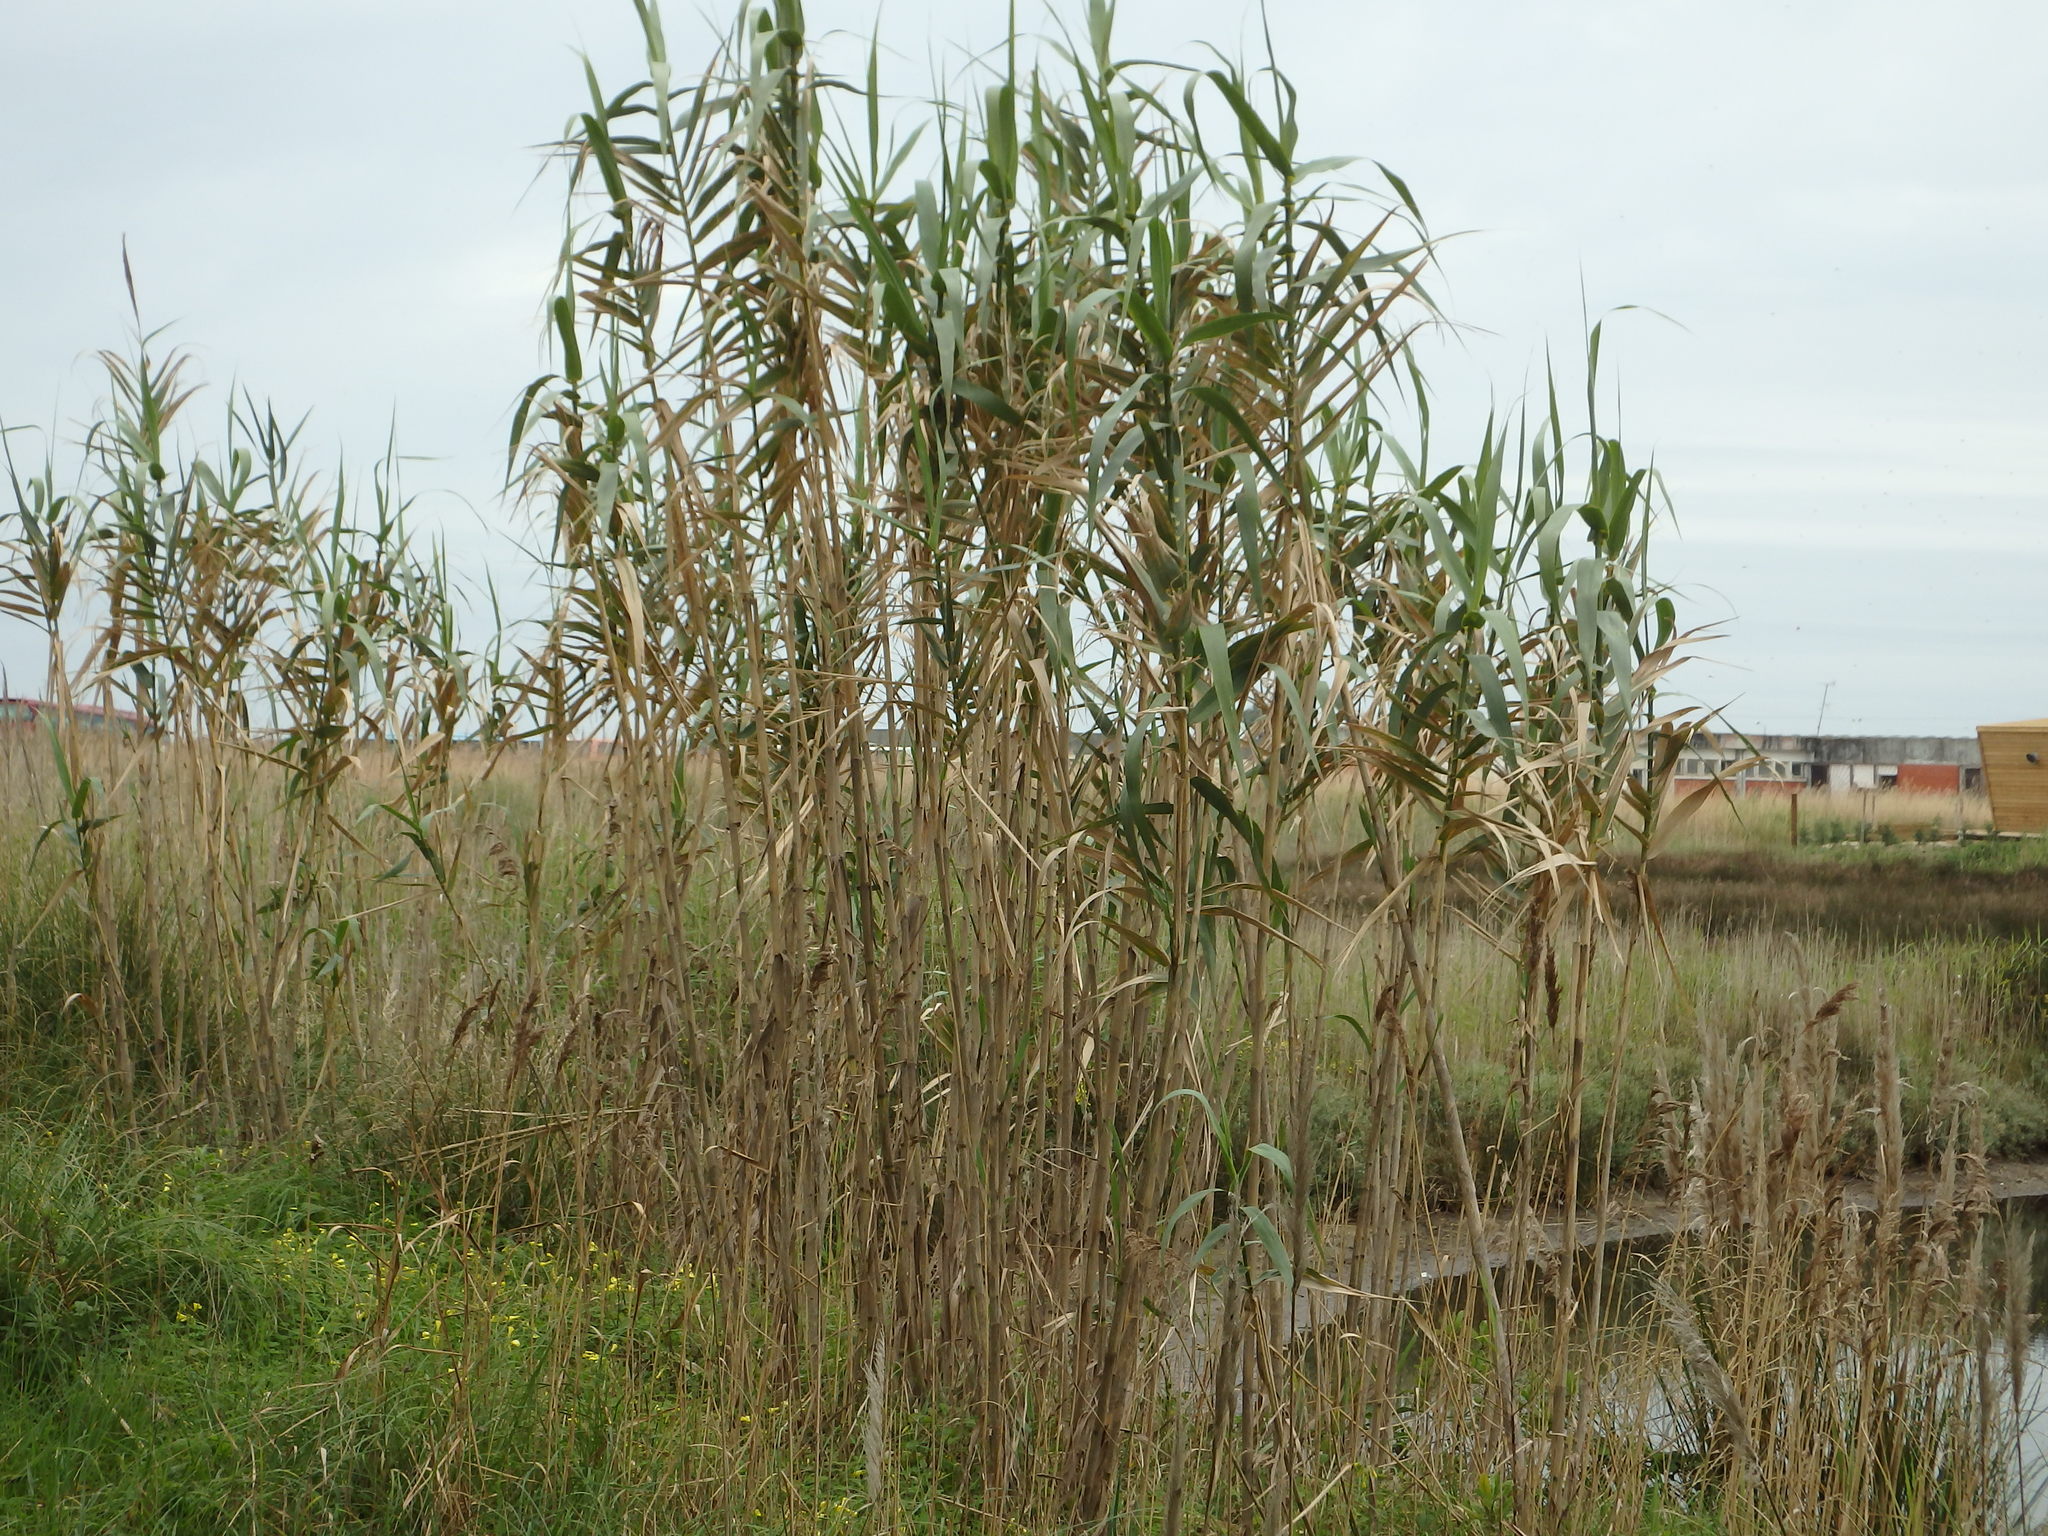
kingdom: Plantae
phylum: Tracheophyta
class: Liliopsida
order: Poales
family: Poaceae
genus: Arundo
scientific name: Arundo donax
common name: Giant reed
